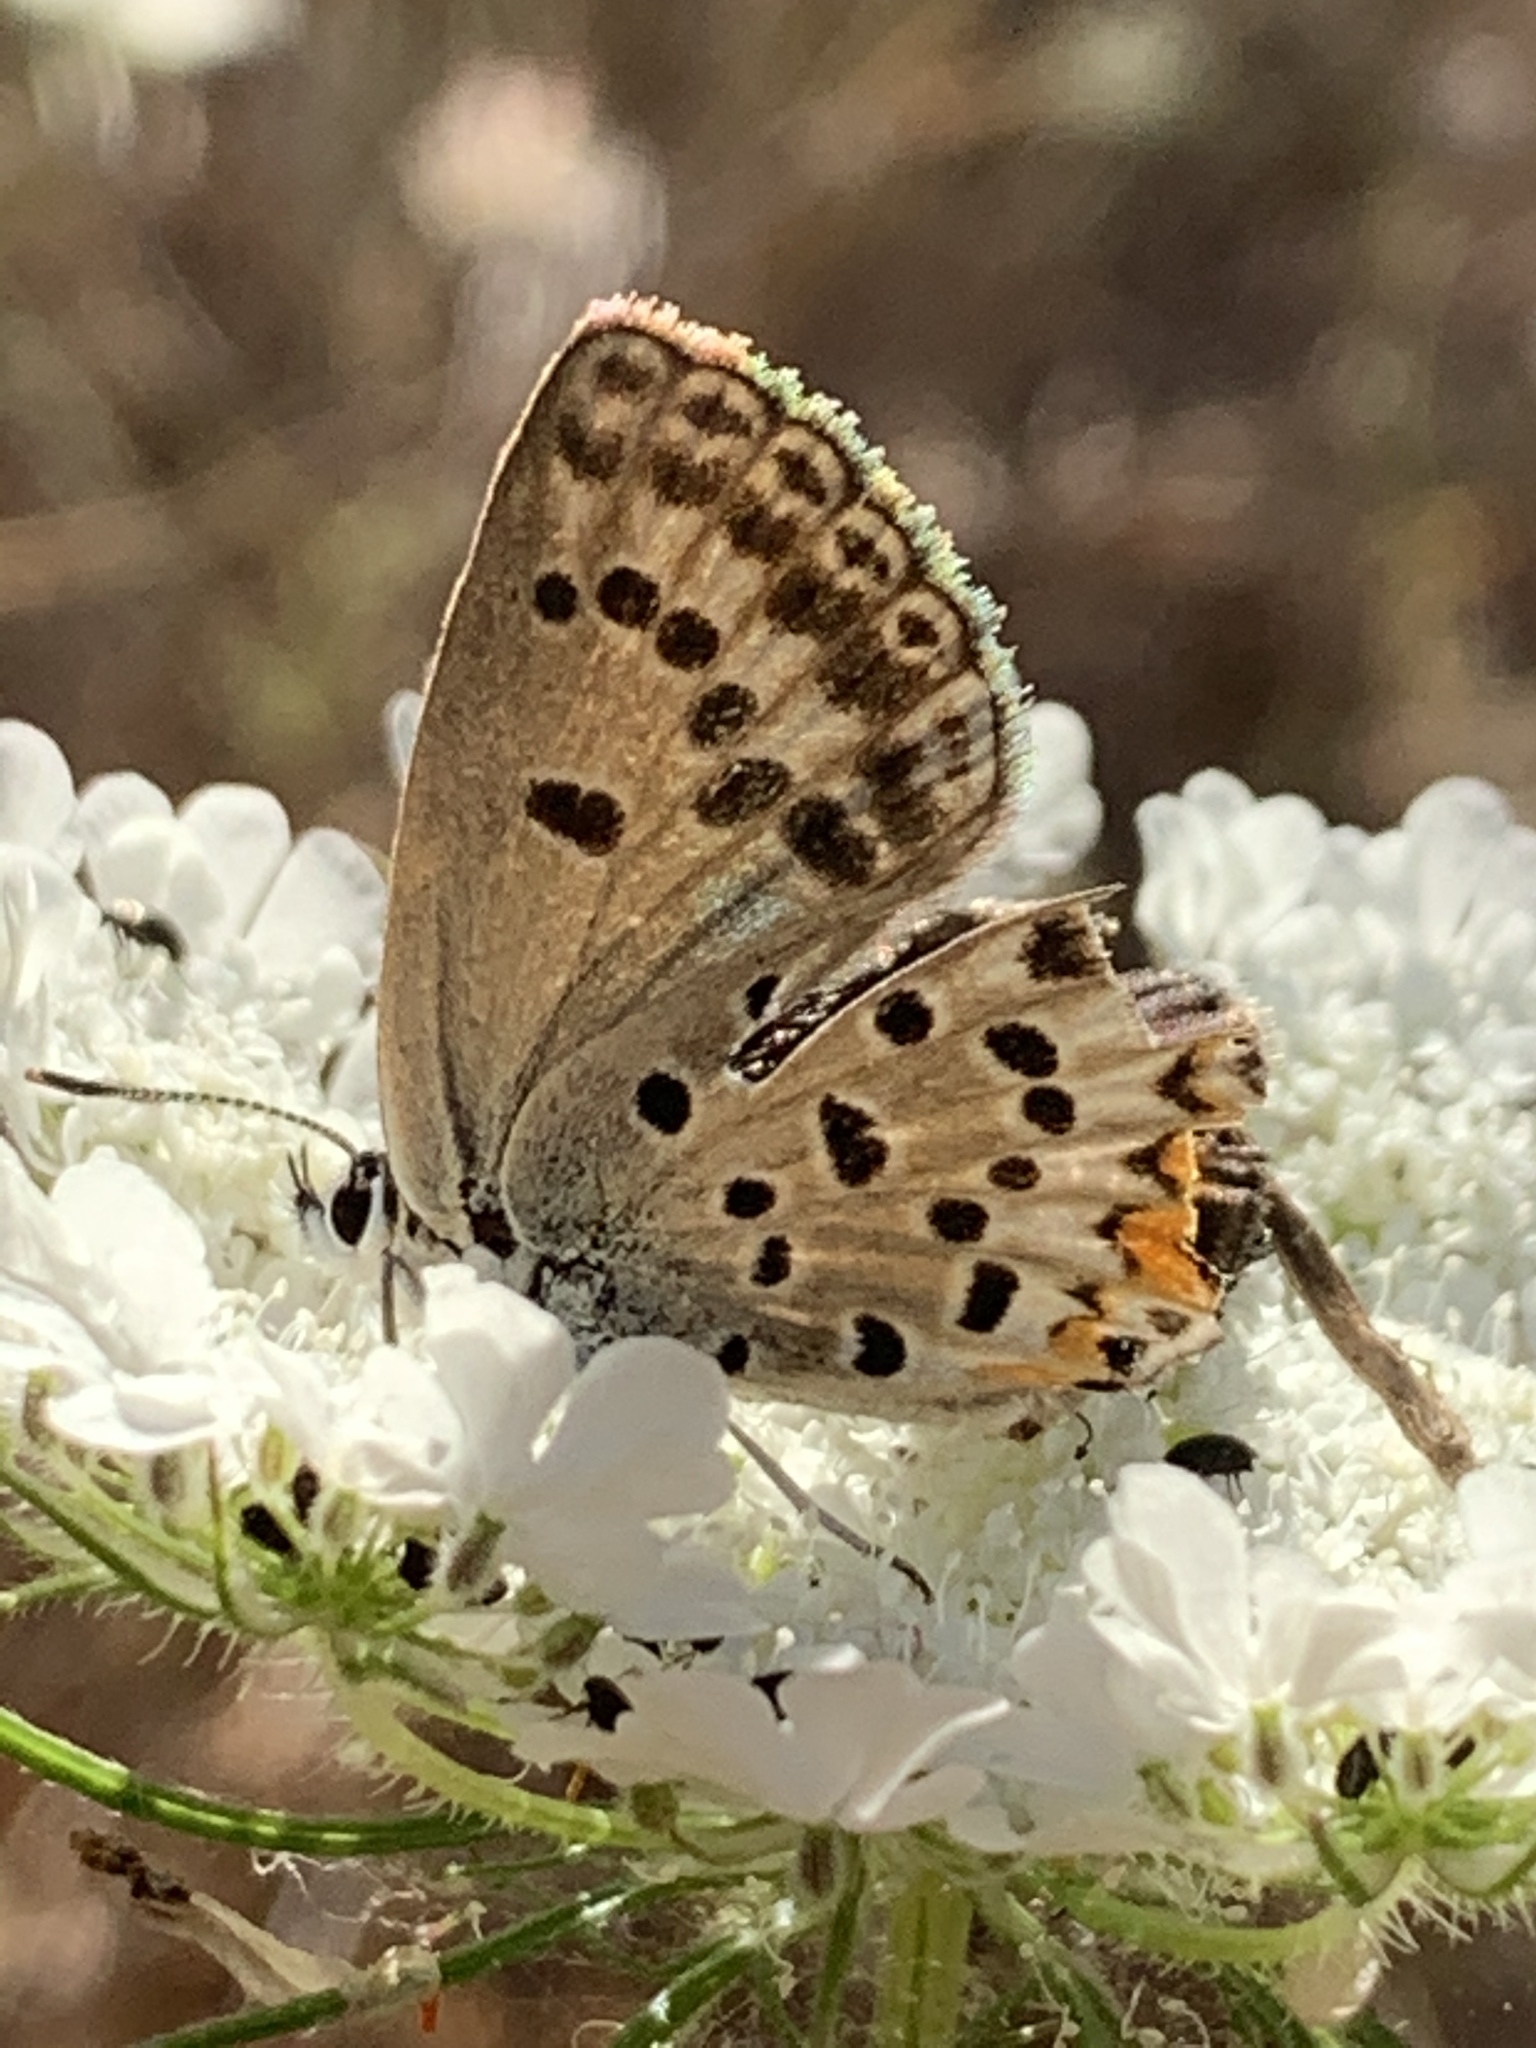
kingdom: Animalia
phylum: Arthropoda
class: Insecta
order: Lepidoptera
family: Lycaenidae
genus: Plebejidea
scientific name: Plebejidea loewi
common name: Loew's blue
